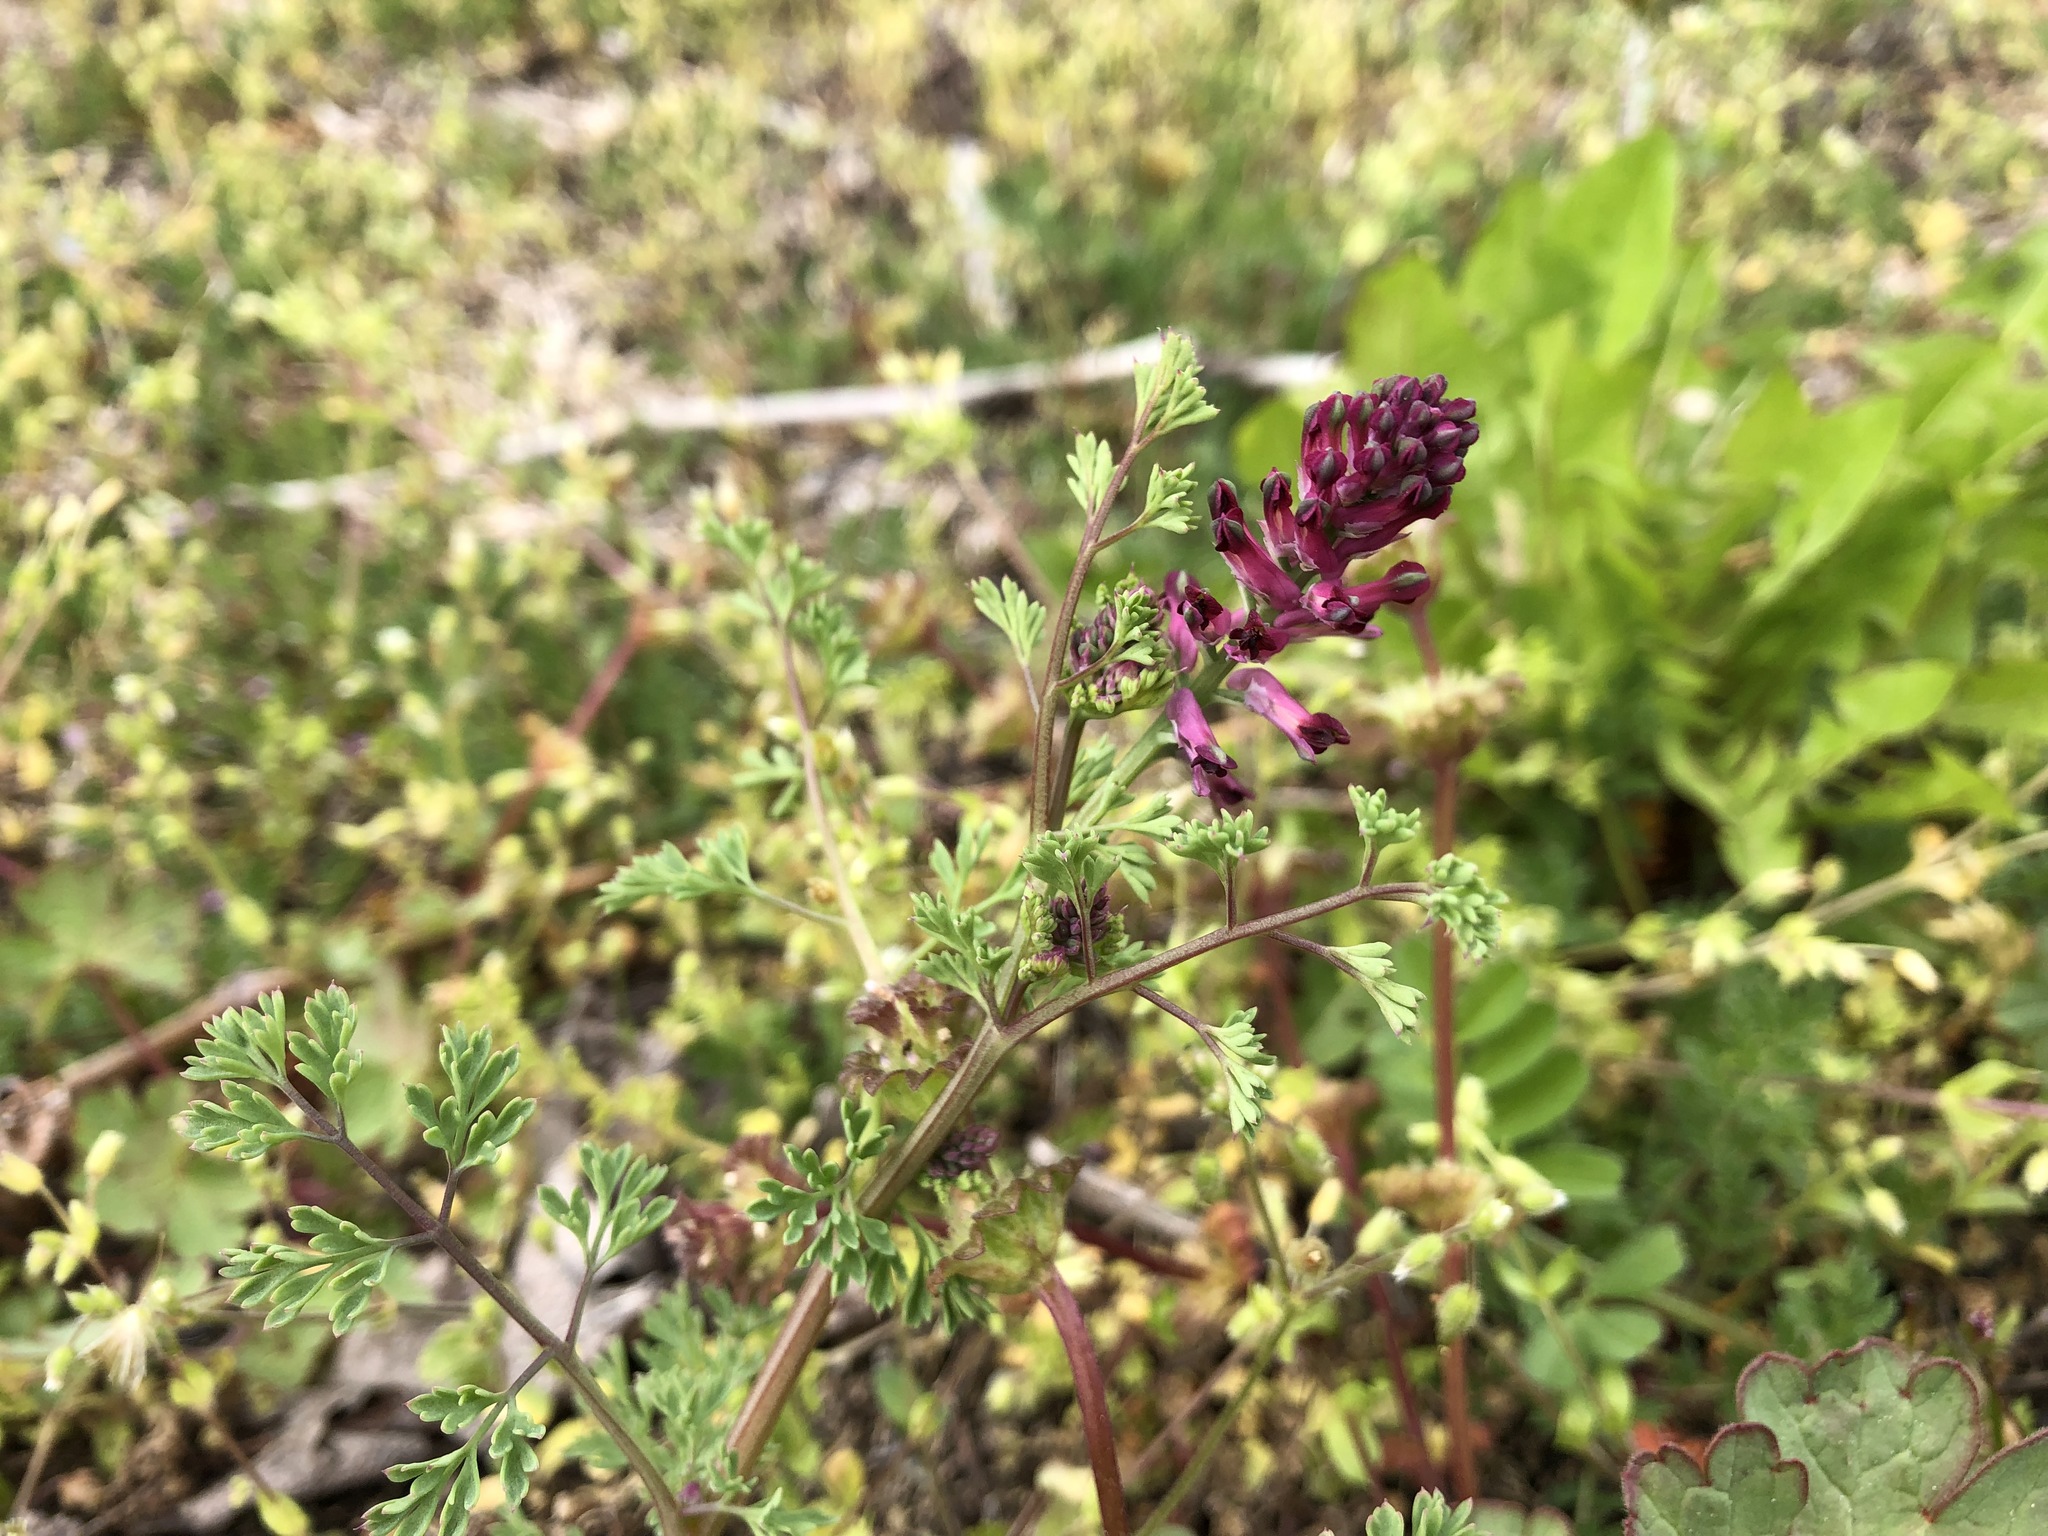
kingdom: Plantae
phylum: Tracheophyta
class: Magnoliopsida
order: Ranunculales
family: Papaveraceae
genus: Fumaria
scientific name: Fumaria officinalis
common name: Common fumitory
